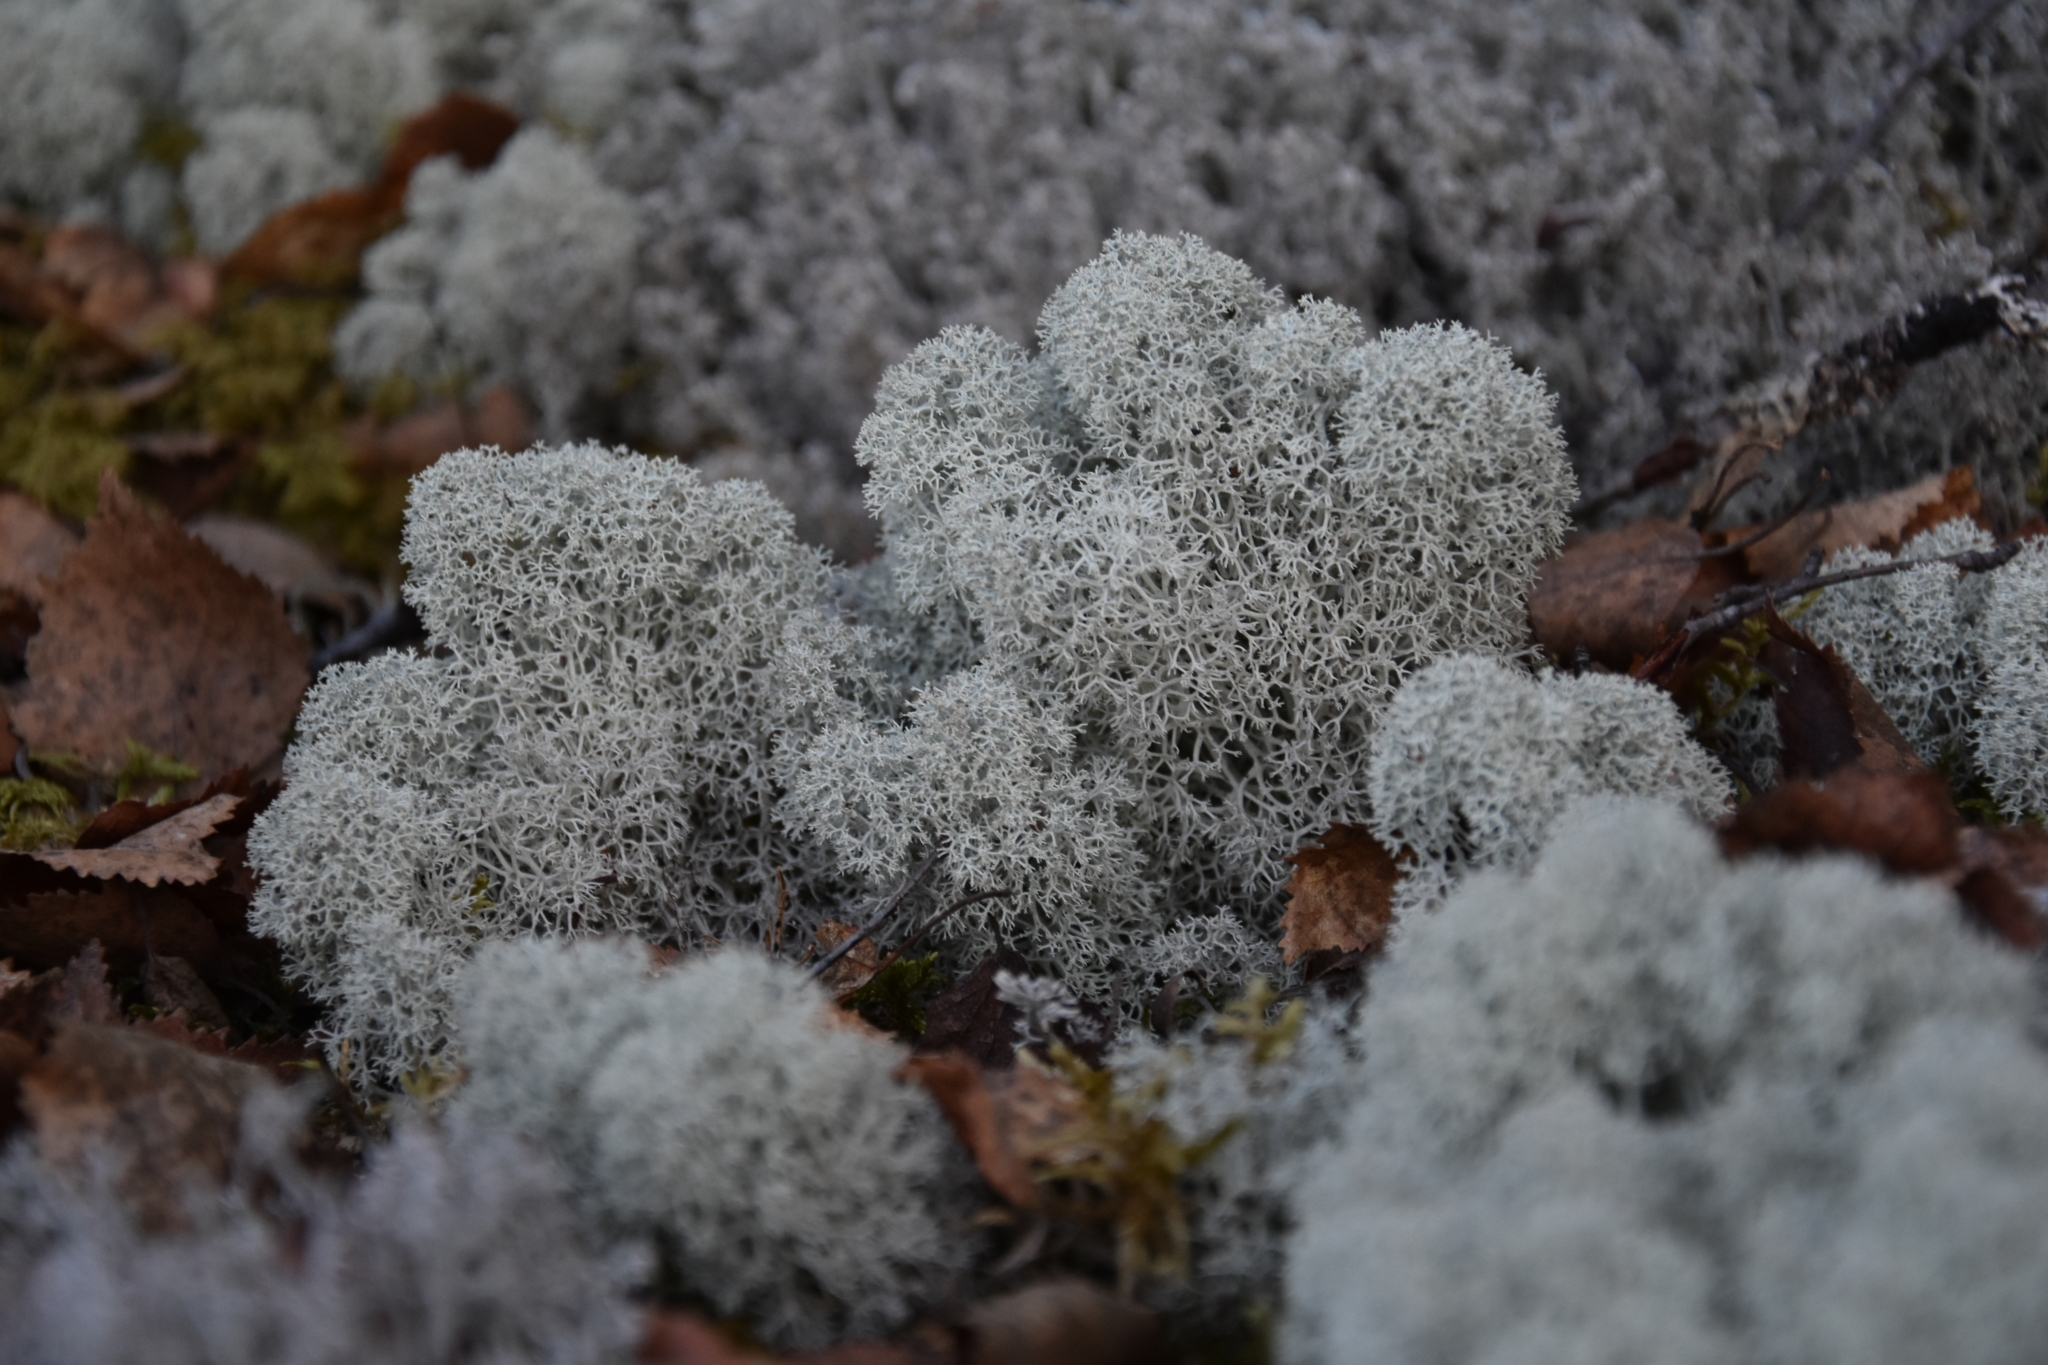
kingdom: Fungi
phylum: Ascomycota
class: Lecanoromycetes
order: Lecanorales
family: Cladoniaceae
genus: Cladonia
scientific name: Cladonia stellaris
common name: Star-tipped reindeer lichen
